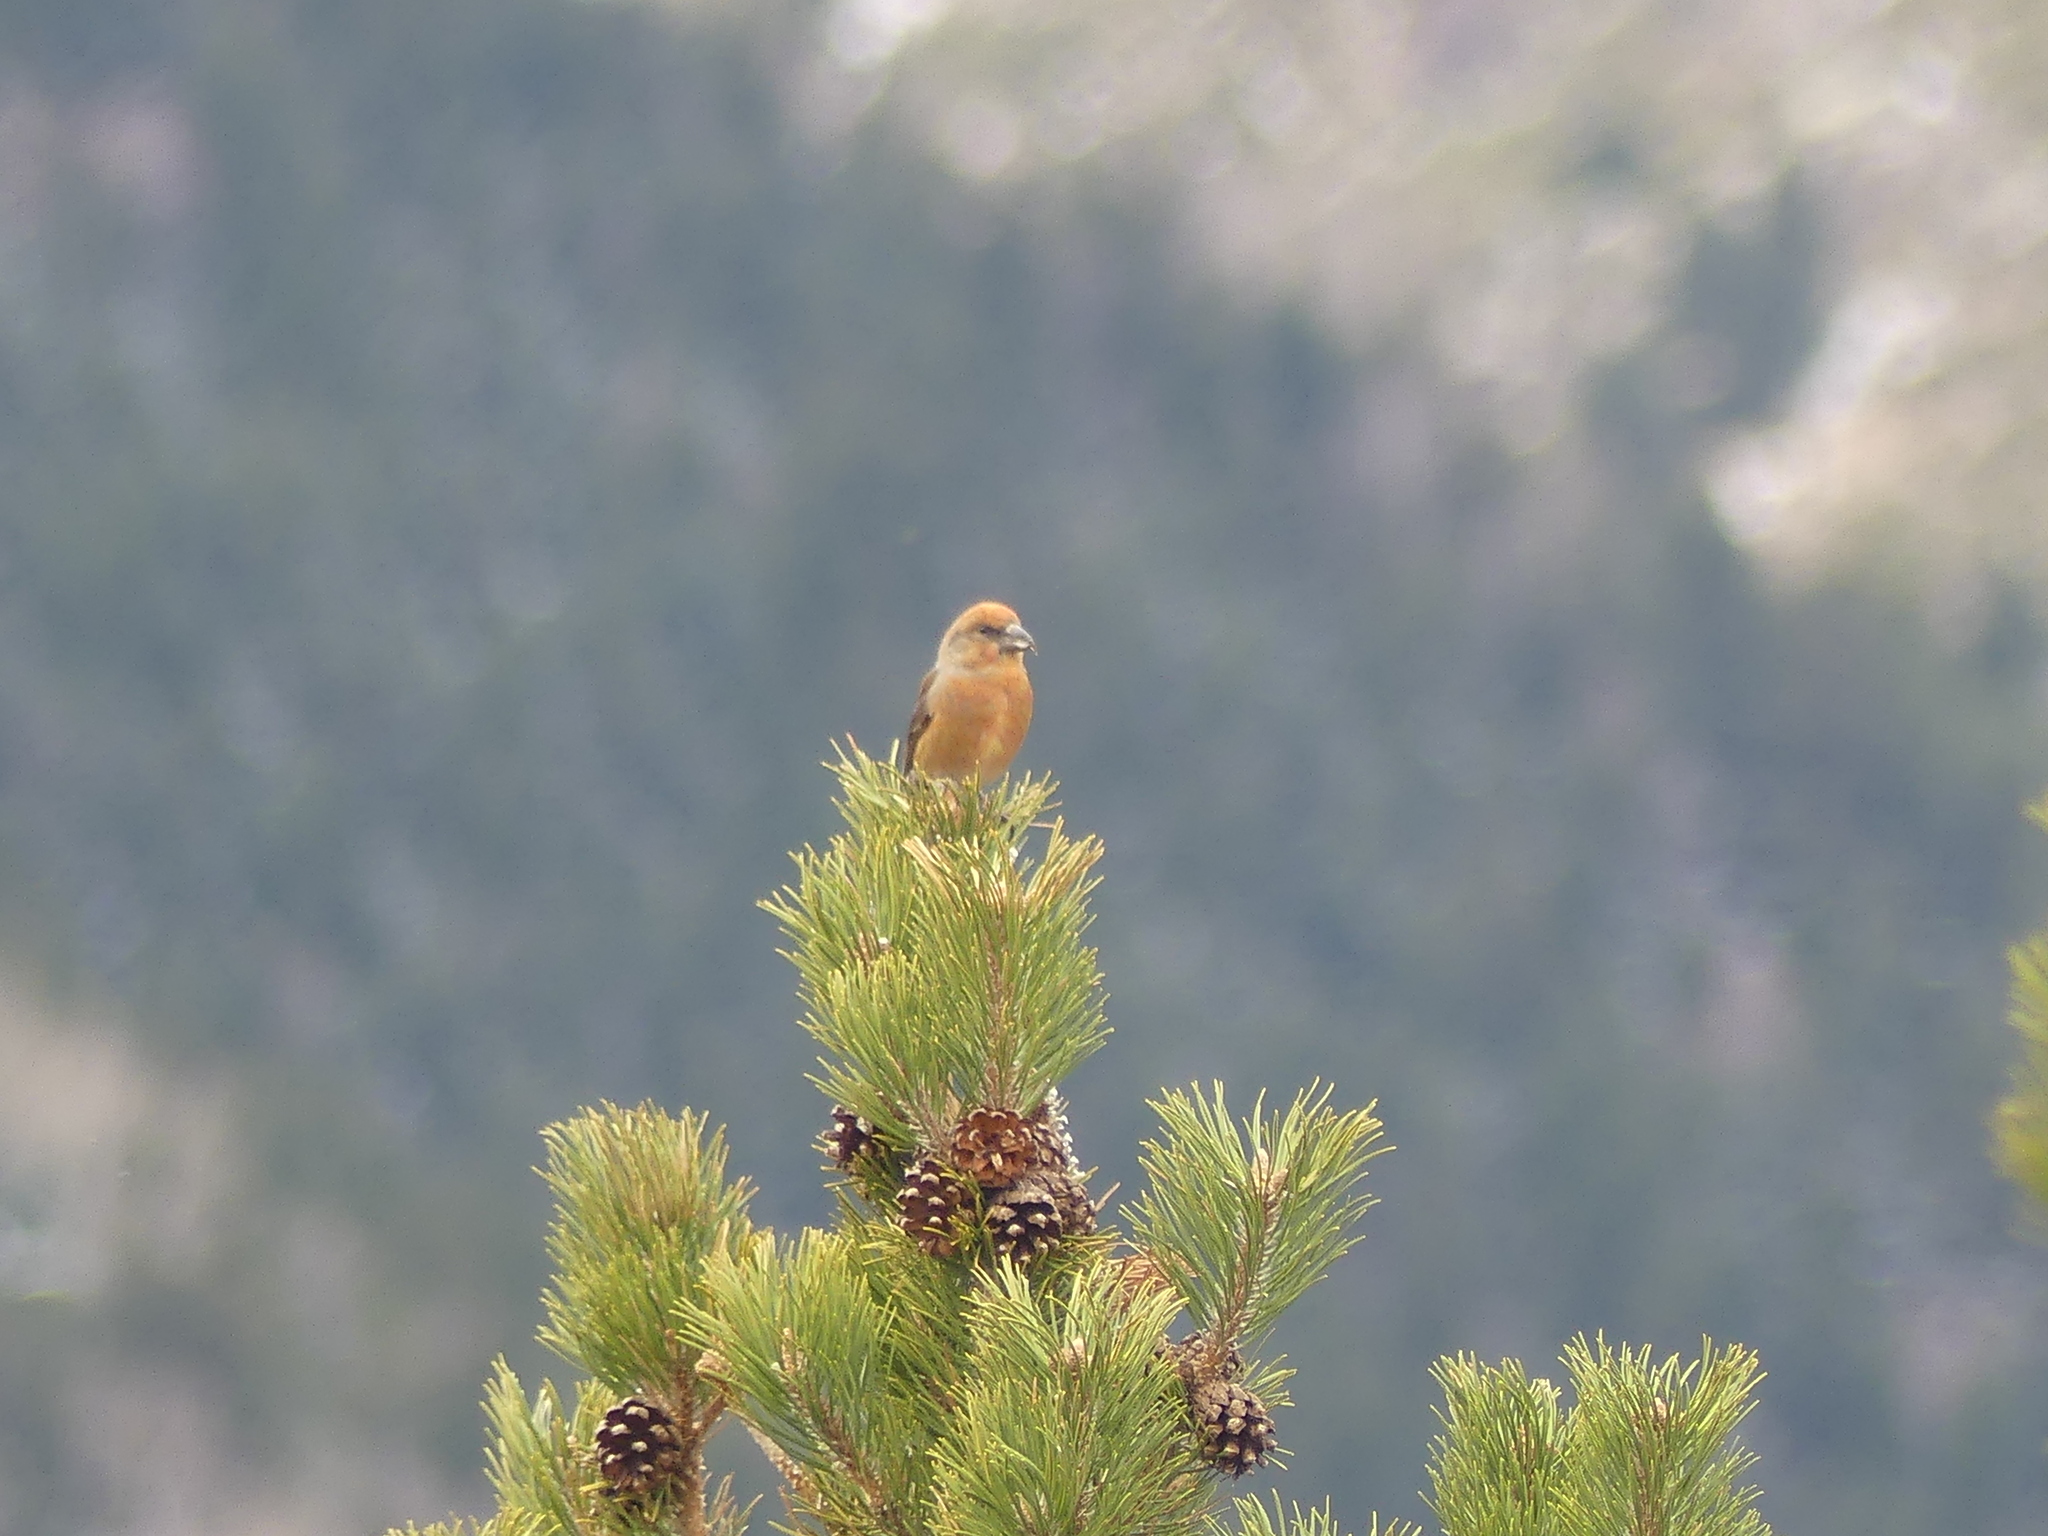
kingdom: Animalia
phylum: Chordata
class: Aves
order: Passeriformes
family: Fringillidae
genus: Loxia
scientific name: Loxia curvirostra
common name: Red crossbill
